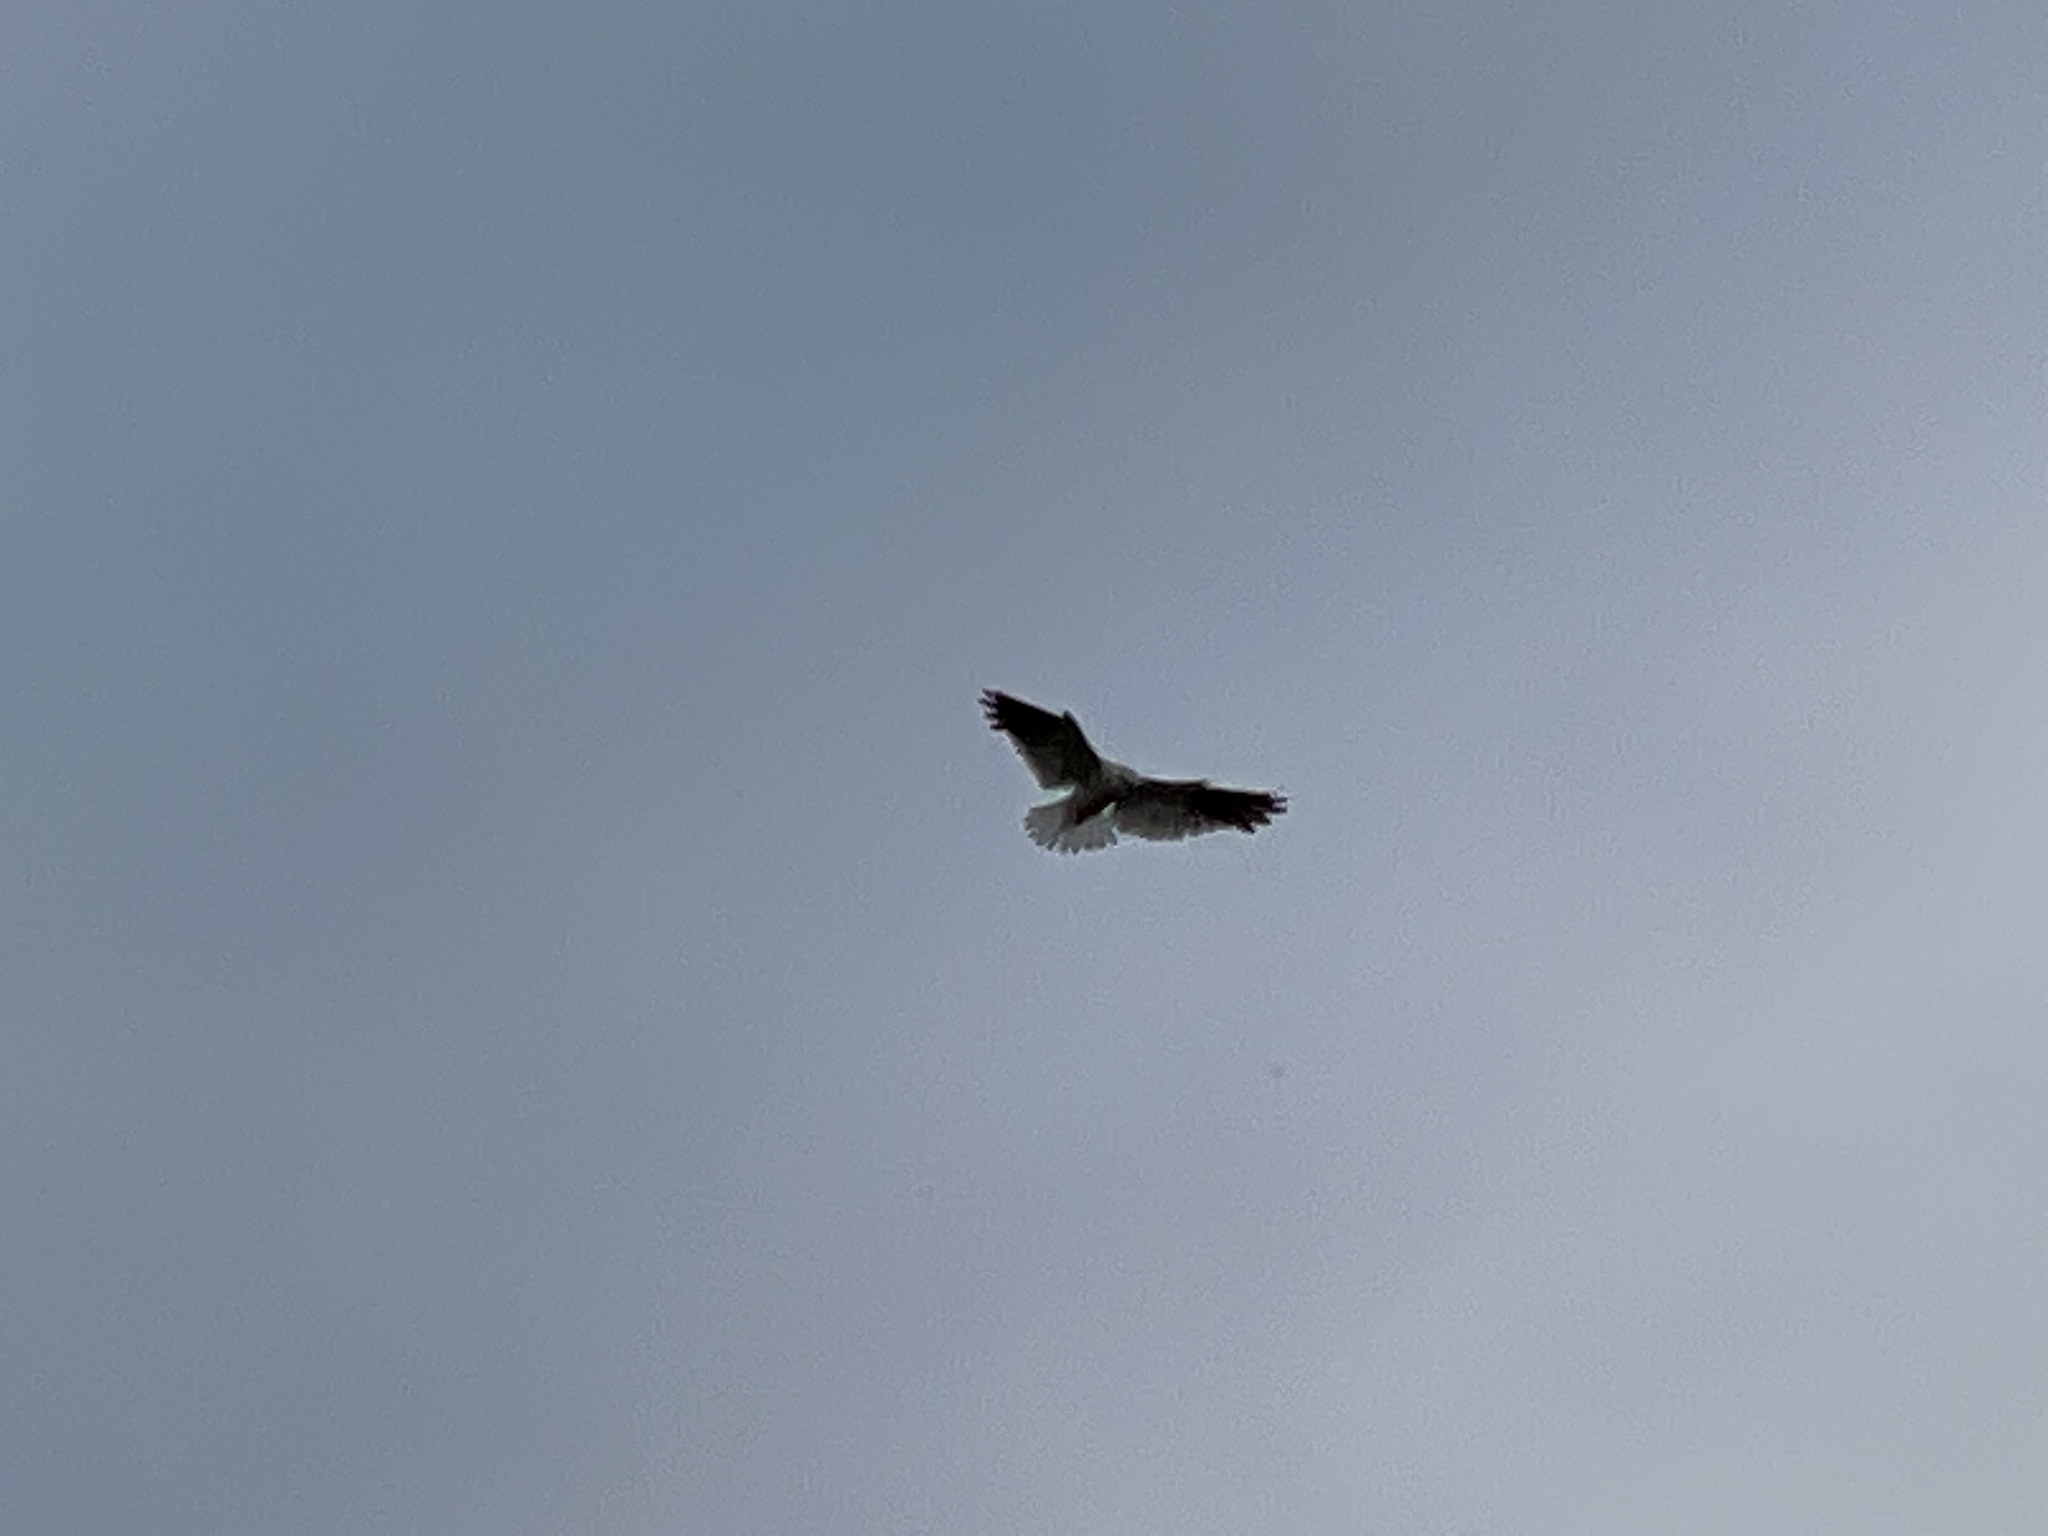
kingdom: Animalia
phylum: Chordata
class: Aves
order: Accipitriformes
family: Accipitridae
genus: Elanus
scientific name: Elanus axillaris
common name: Black-shouldered kite
